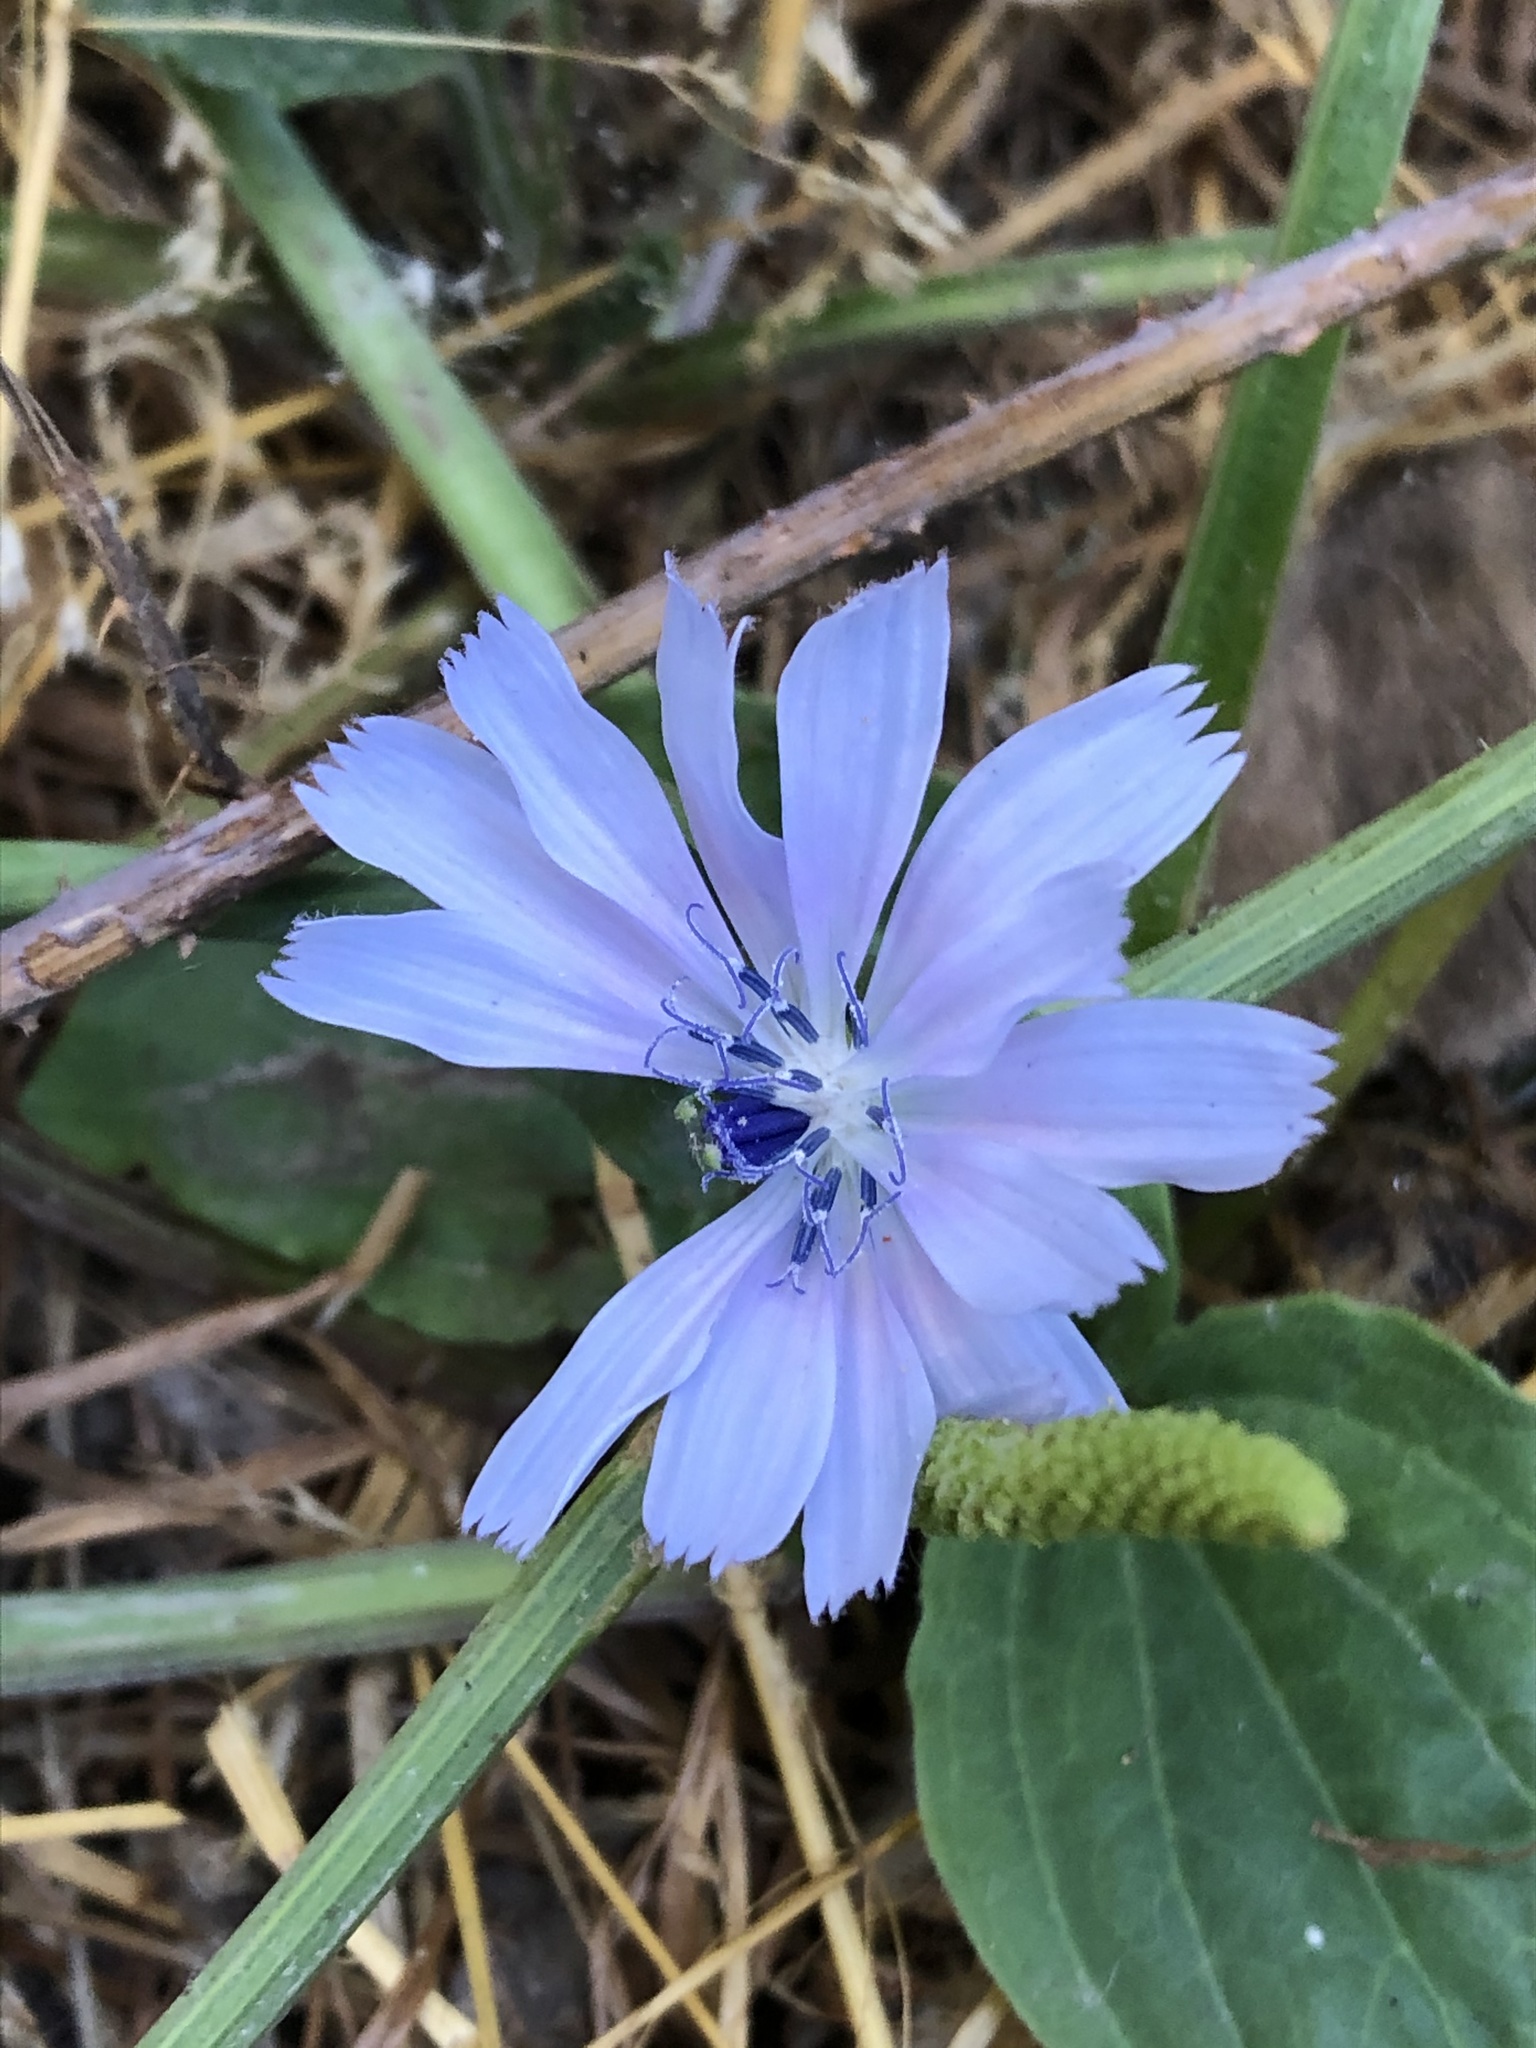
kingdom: Plantae
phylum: Tracheophyta
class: Magnoliopsida
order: Asterales
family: Asteraceae
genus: Cichorium
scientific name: Cichorium intybus
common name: Chicory
